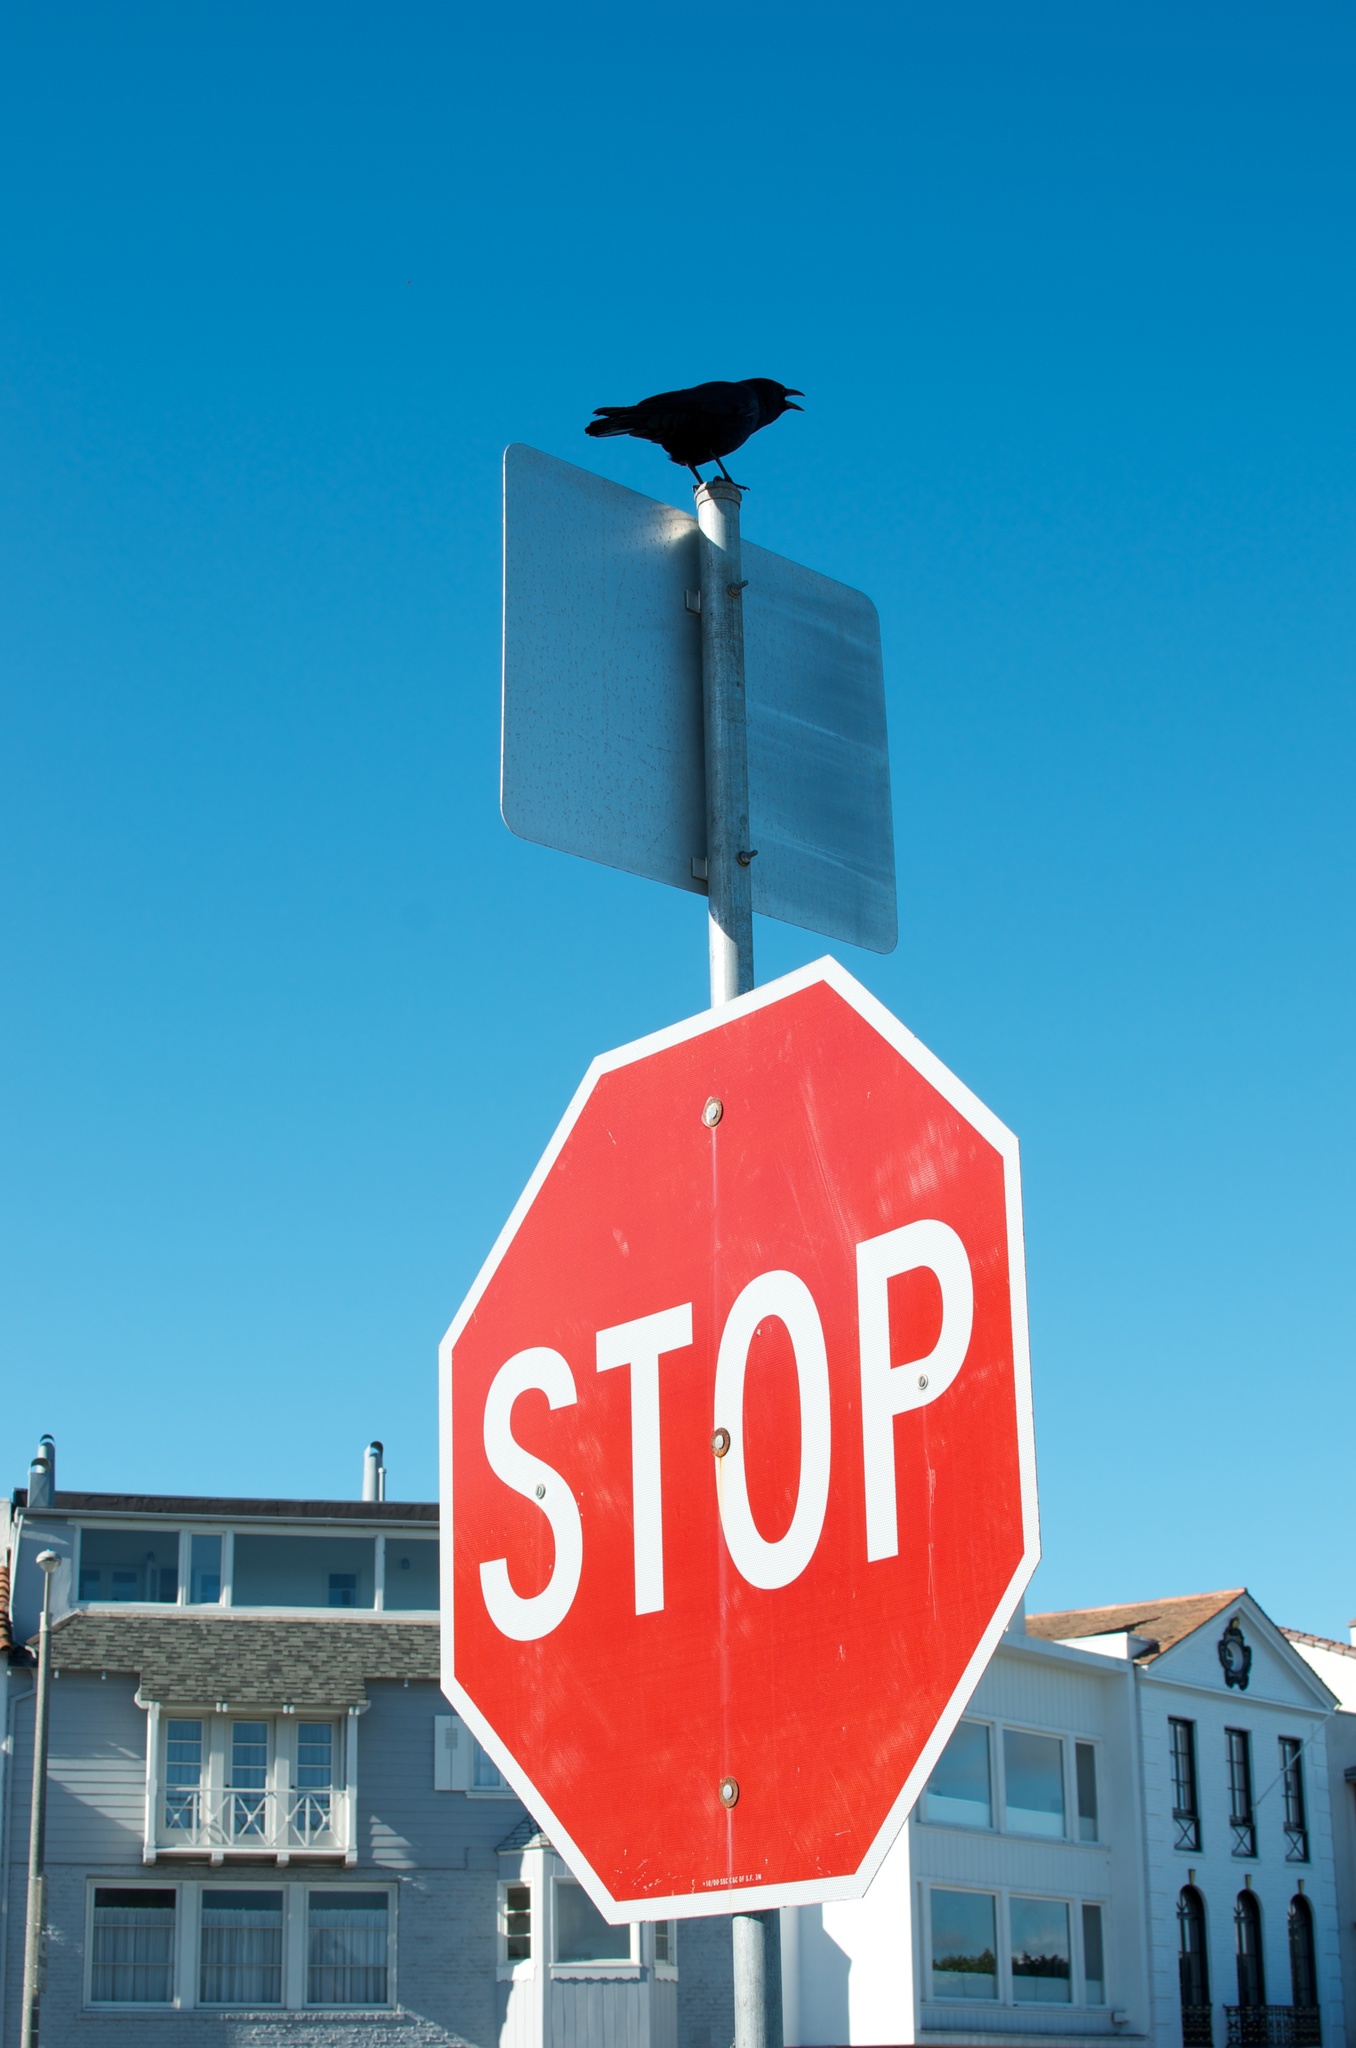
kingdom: Animalia
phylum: Chordata
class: Aves
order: Passeriformes
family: Corvidae
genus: Corvus
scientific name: Corvus brachyrhynchos
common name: American crow
